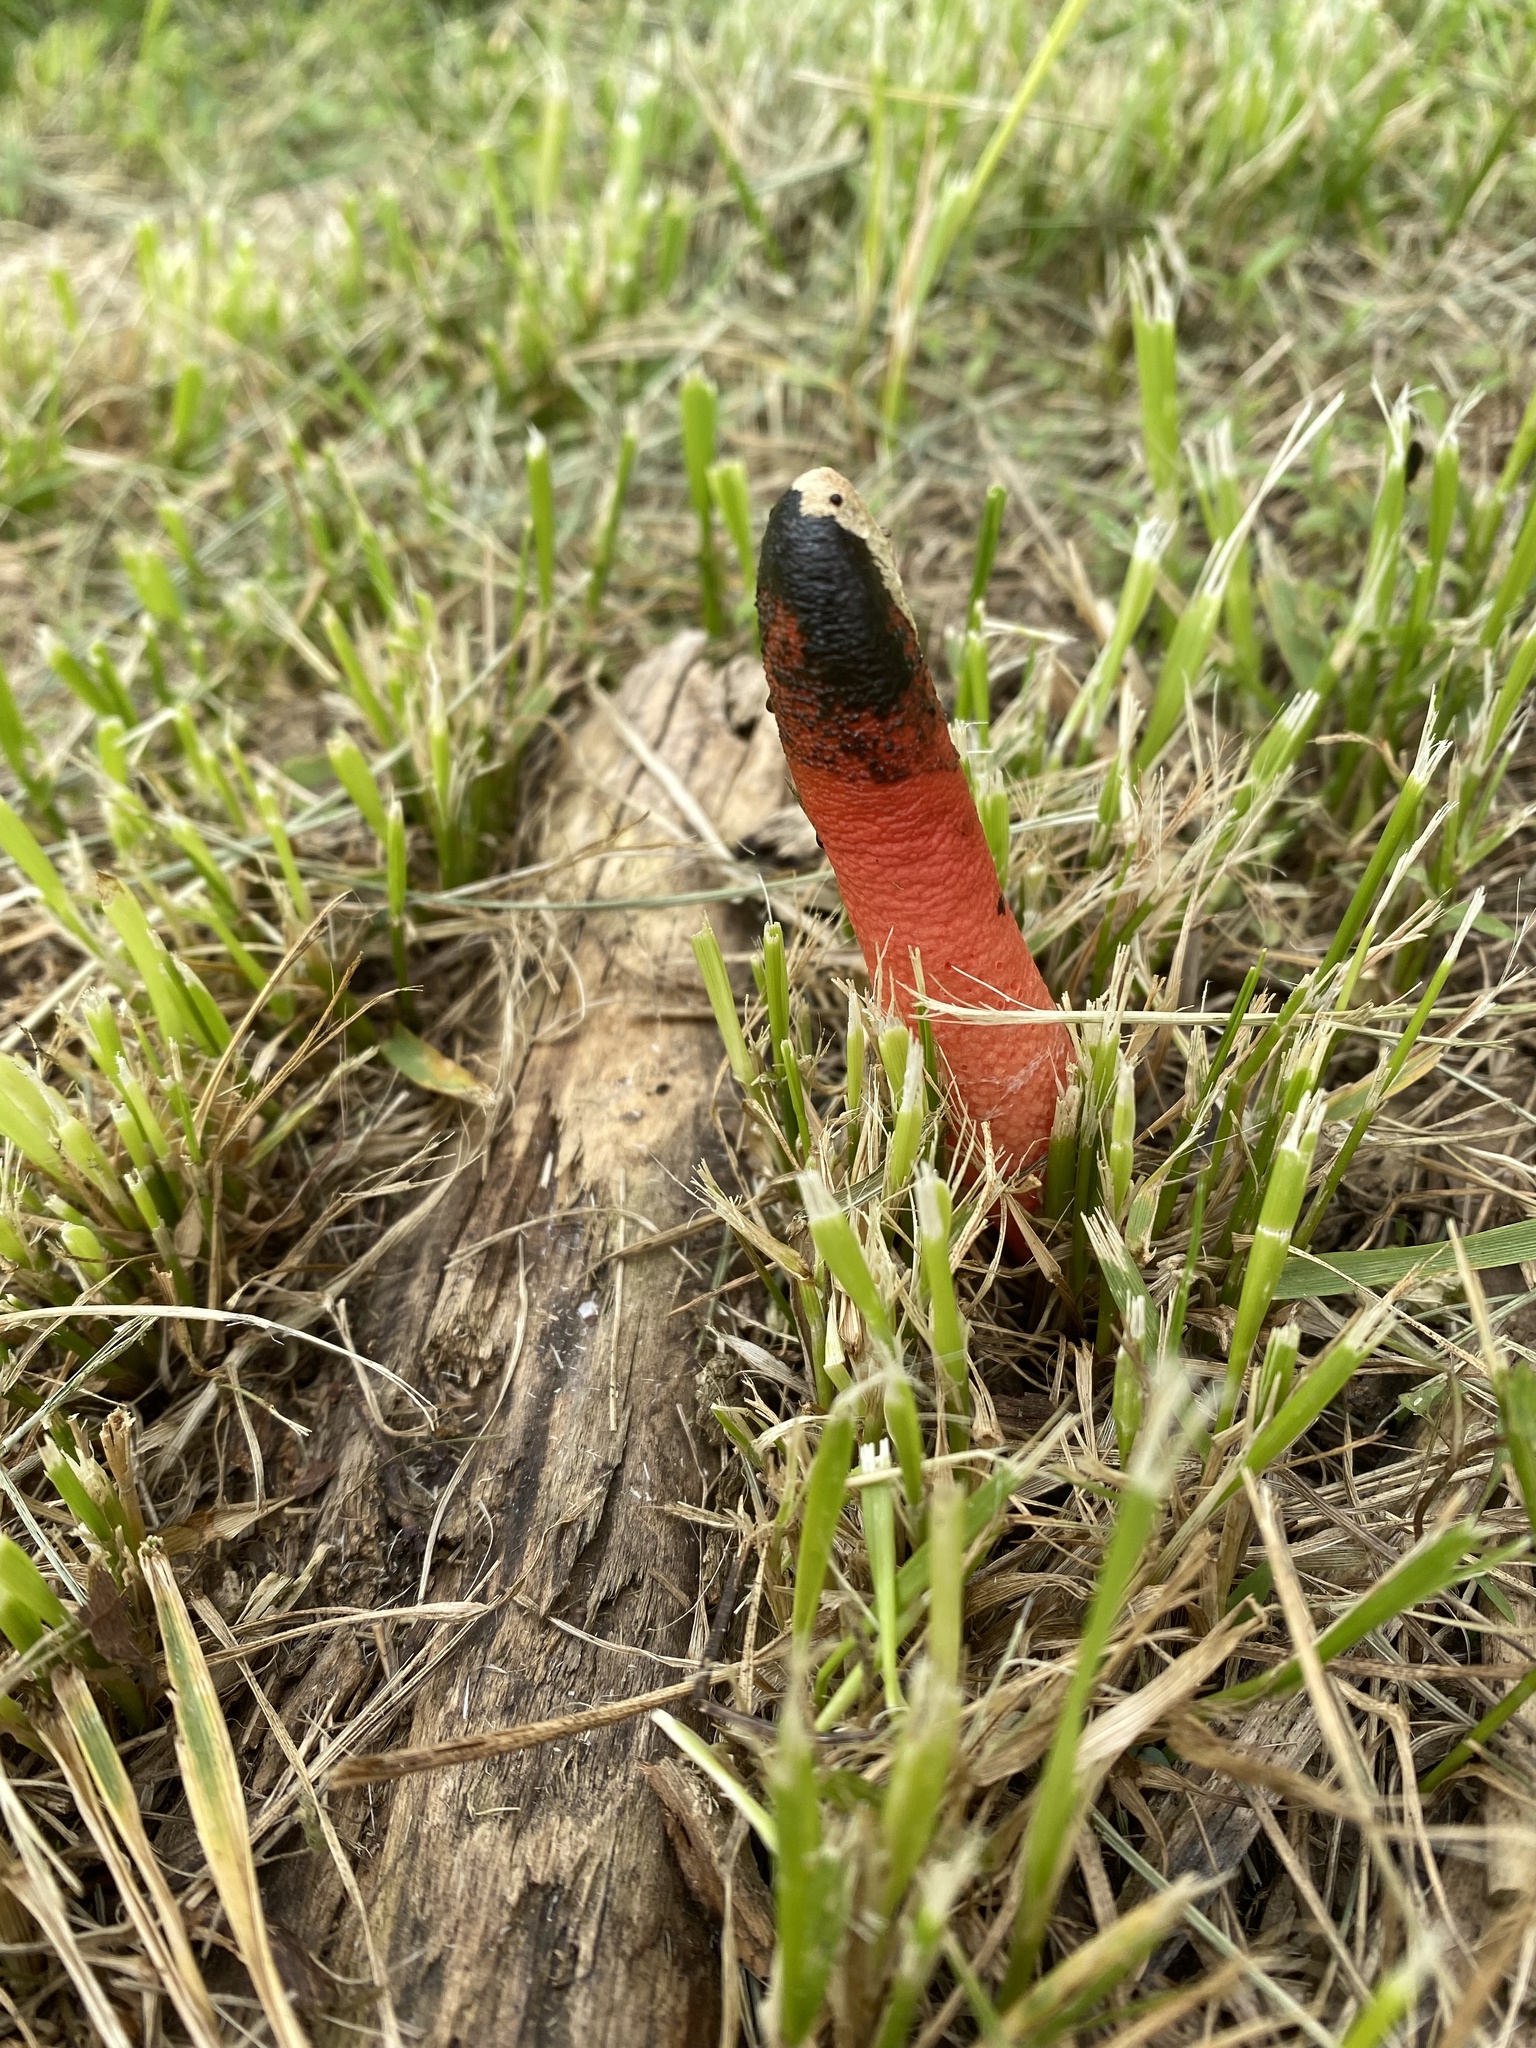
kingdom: Fungi
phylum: Basidiomycota
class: Agaricomycetes
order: Phallales
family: Phallaceae
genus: Mutinus
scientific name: Mutinus elegans
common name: Devil's dipstick
